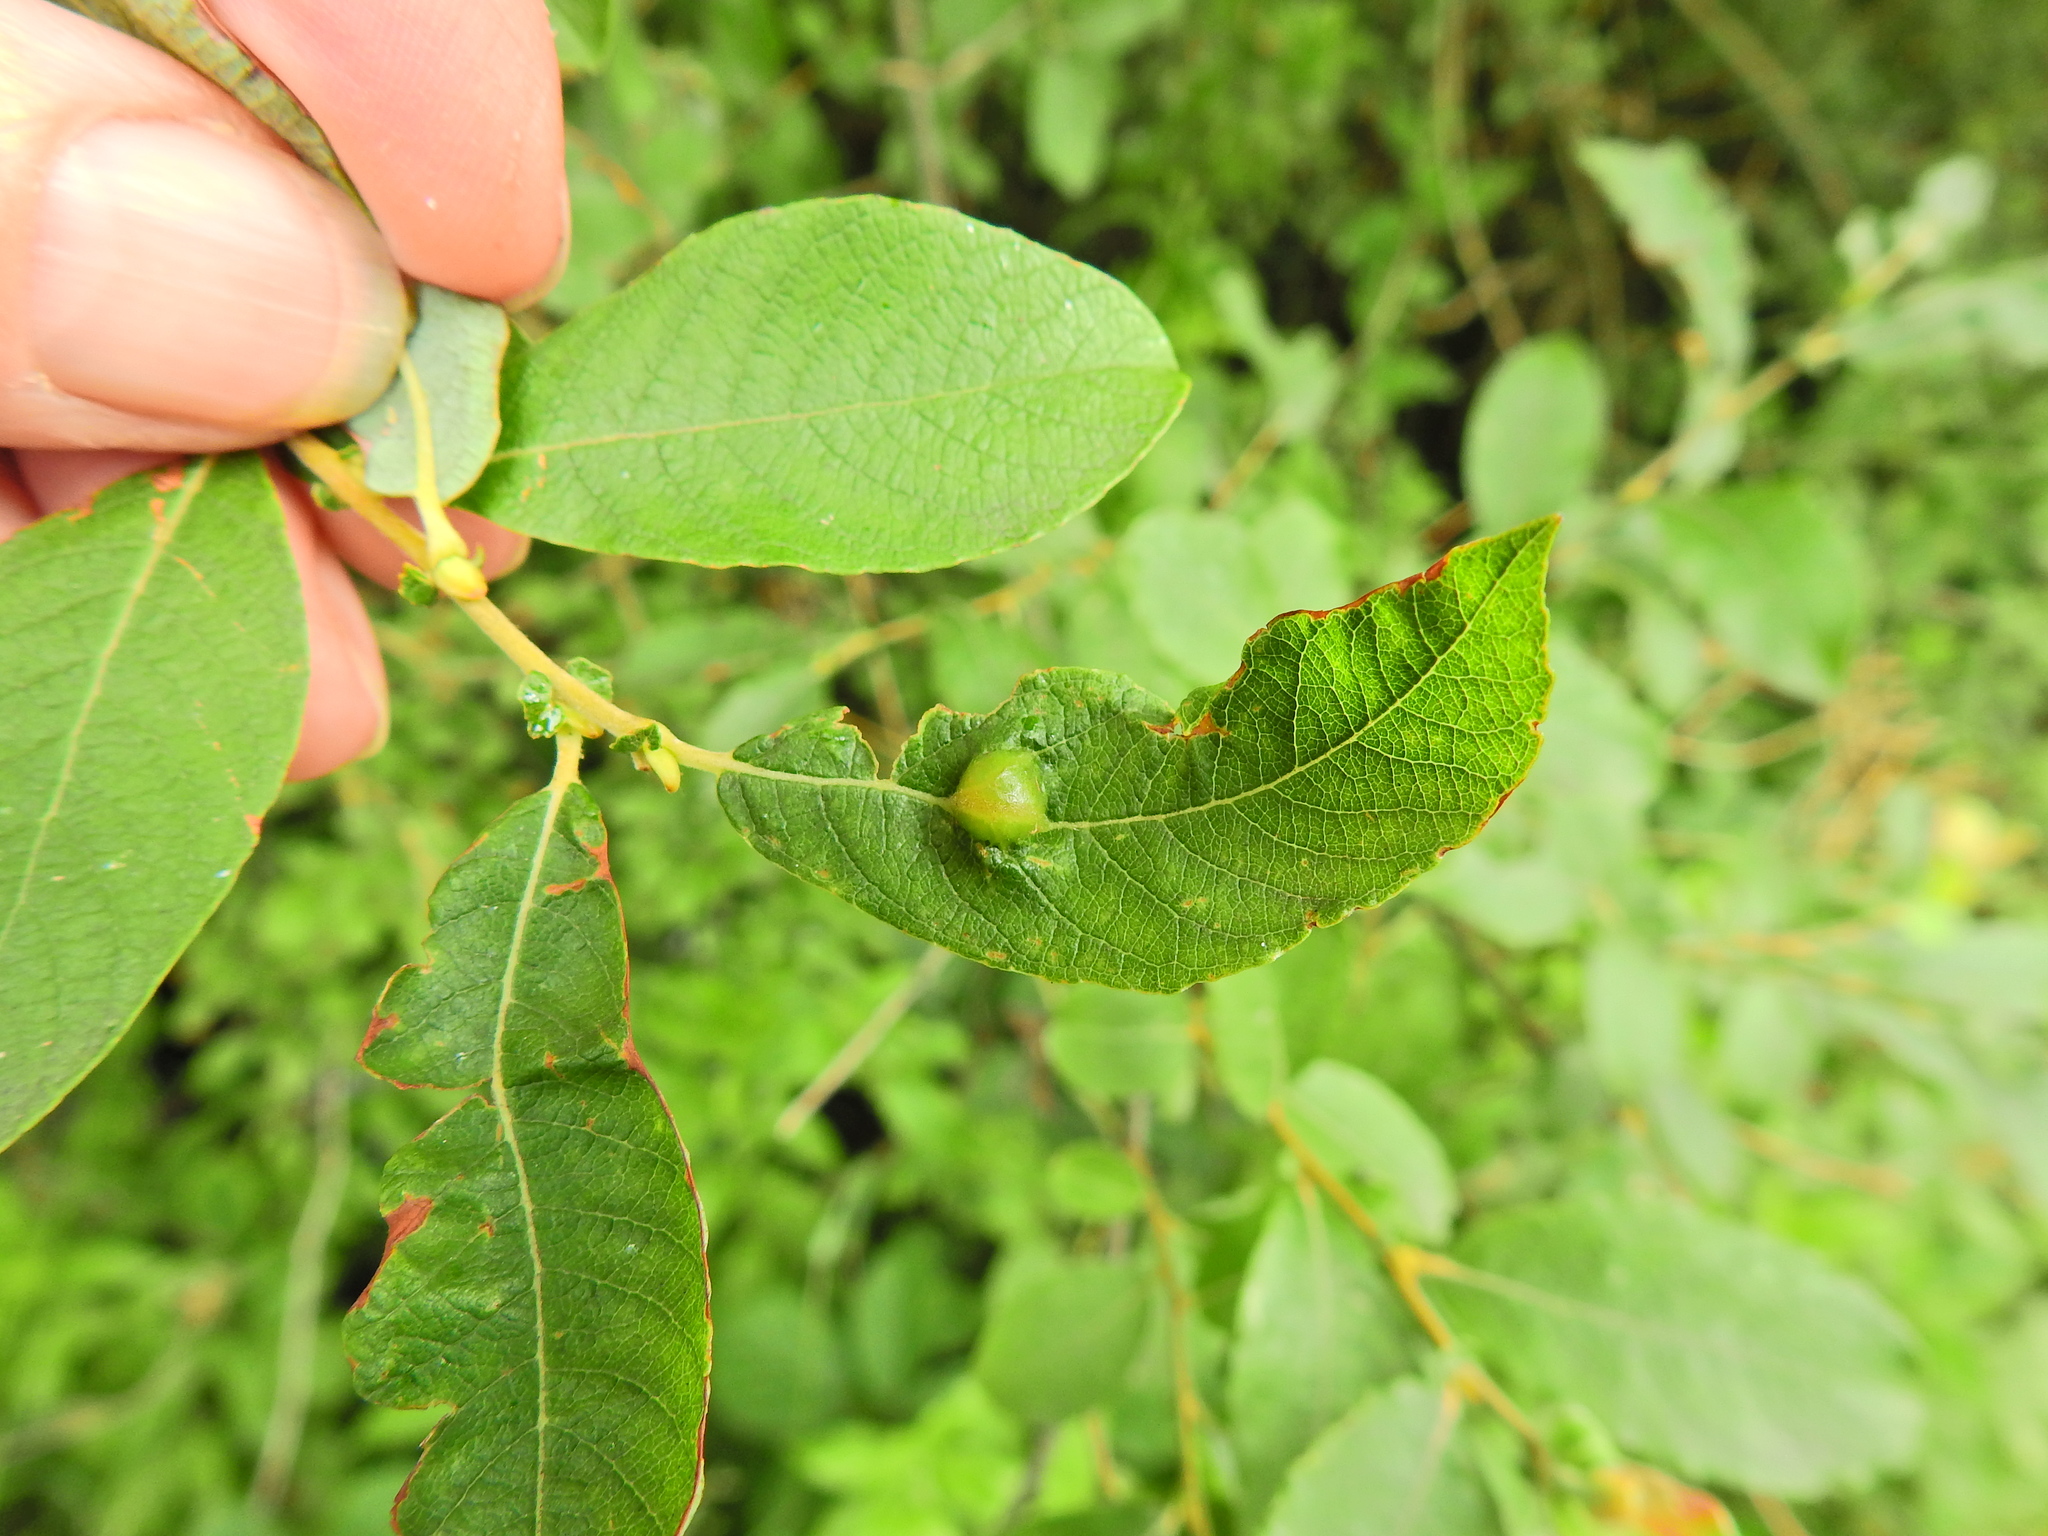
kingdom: Animalia
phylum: Arthropoda
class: Insecta
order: Diptera
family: Cecidomyiidae
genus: Iteomyia
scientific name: Iteomyia major
